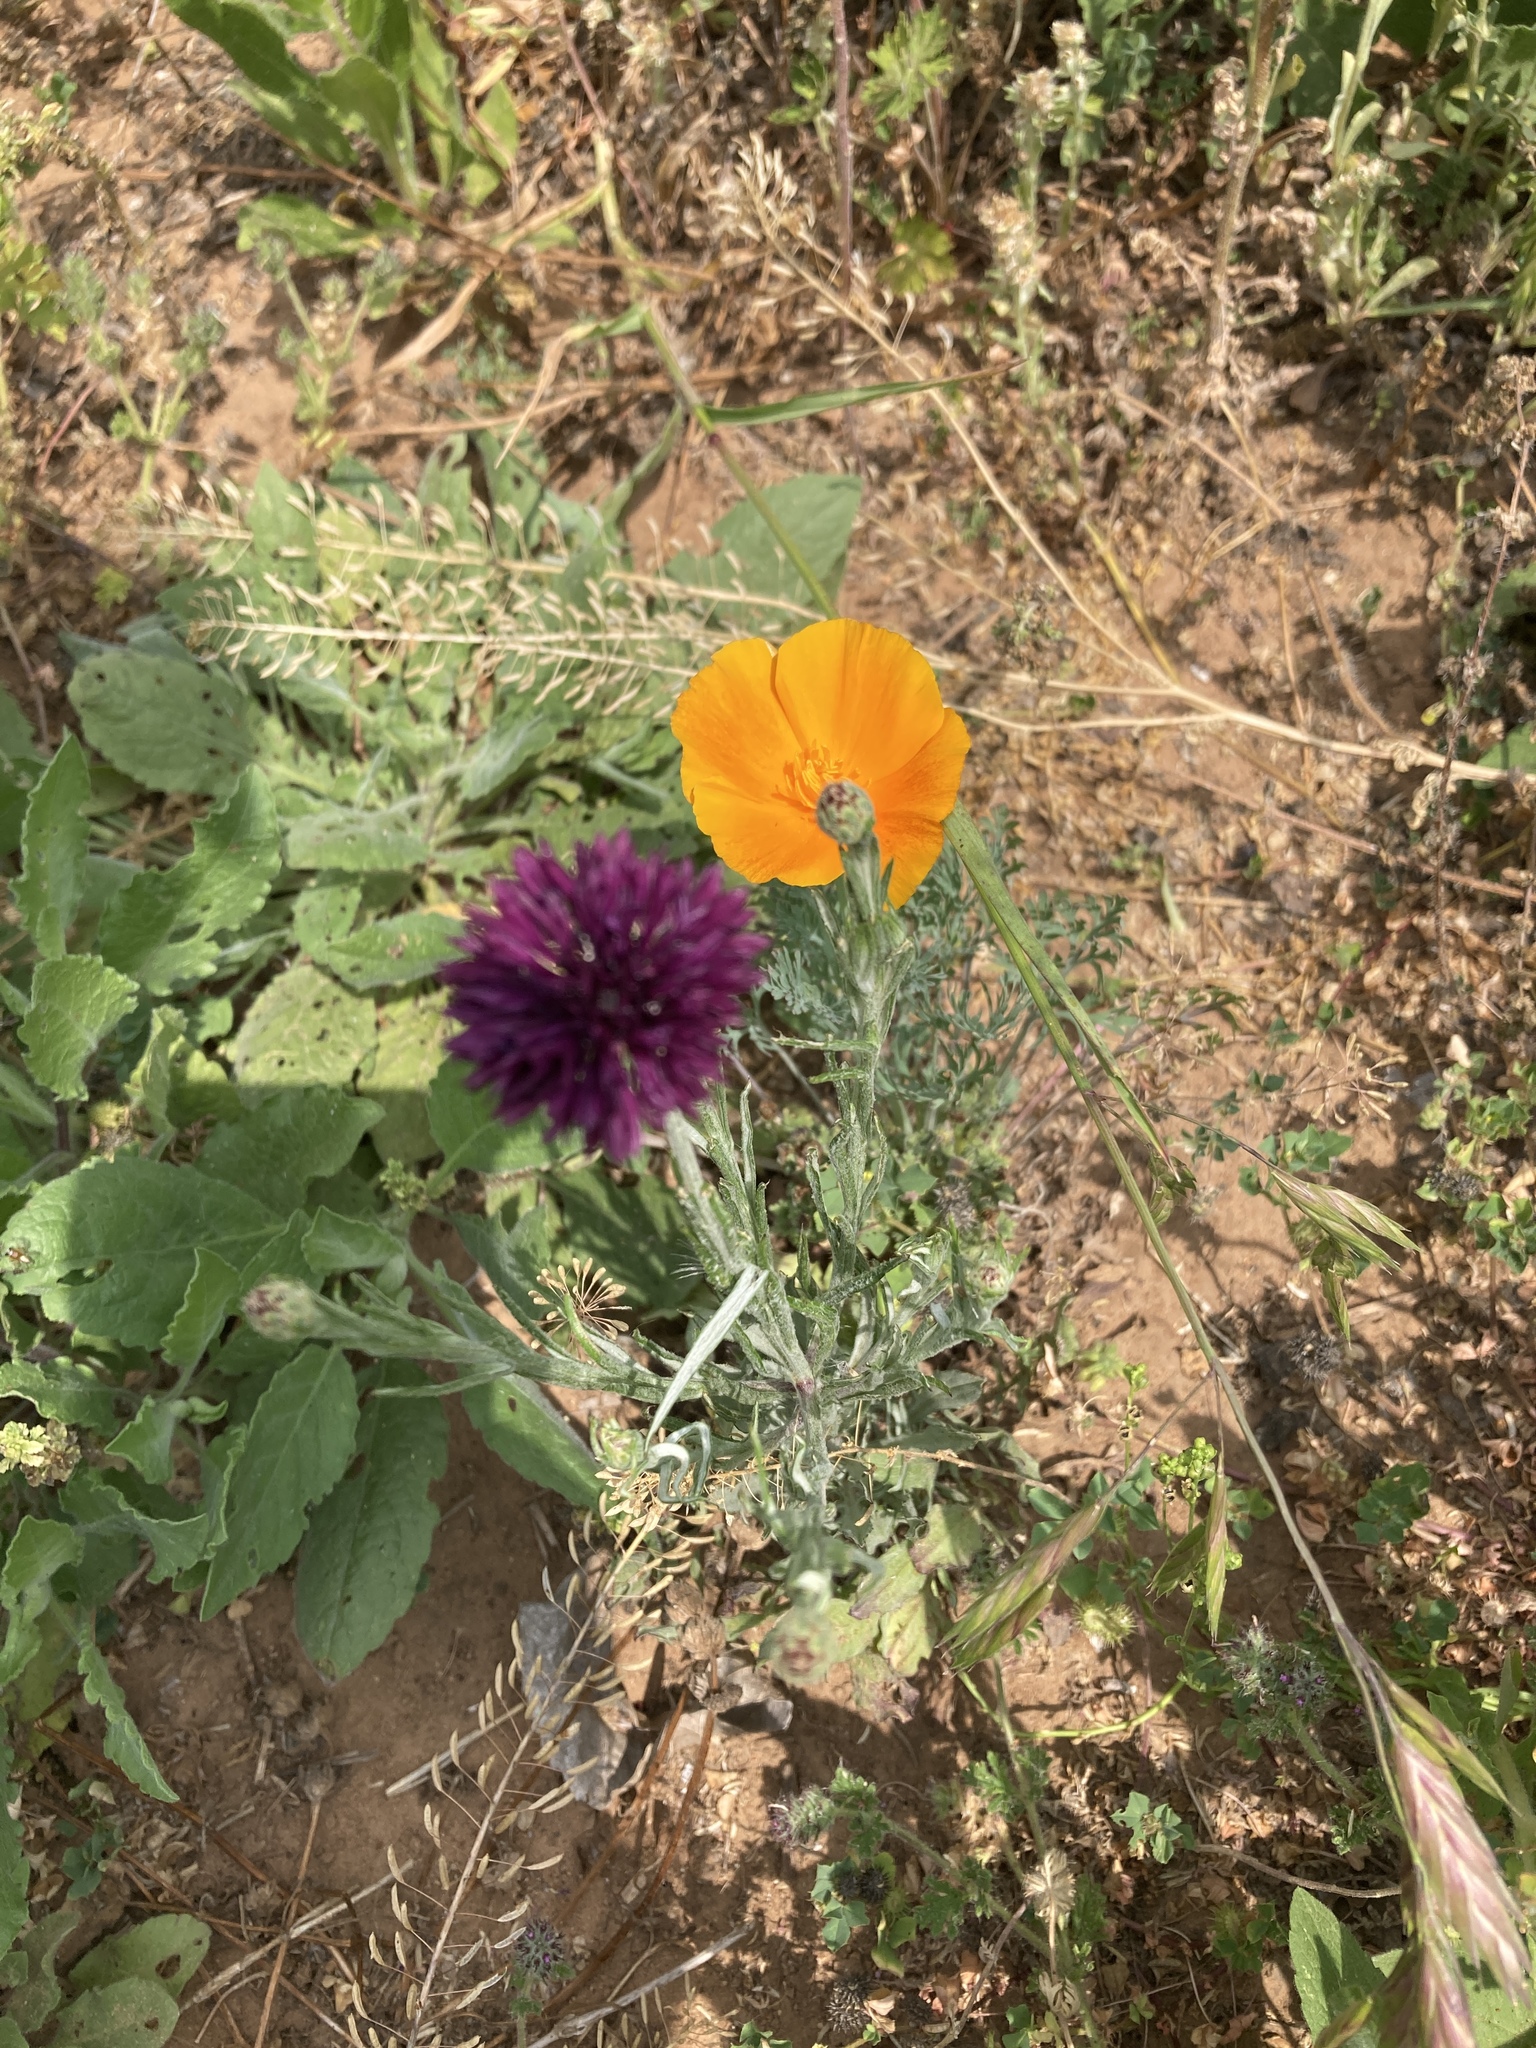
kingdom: Plantae
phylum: Tracheophyta
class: Magnoliopsida
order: Asterales
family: Asteraceae
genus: Centaurea
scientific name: Centaurea cyanus
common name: Cornflower
